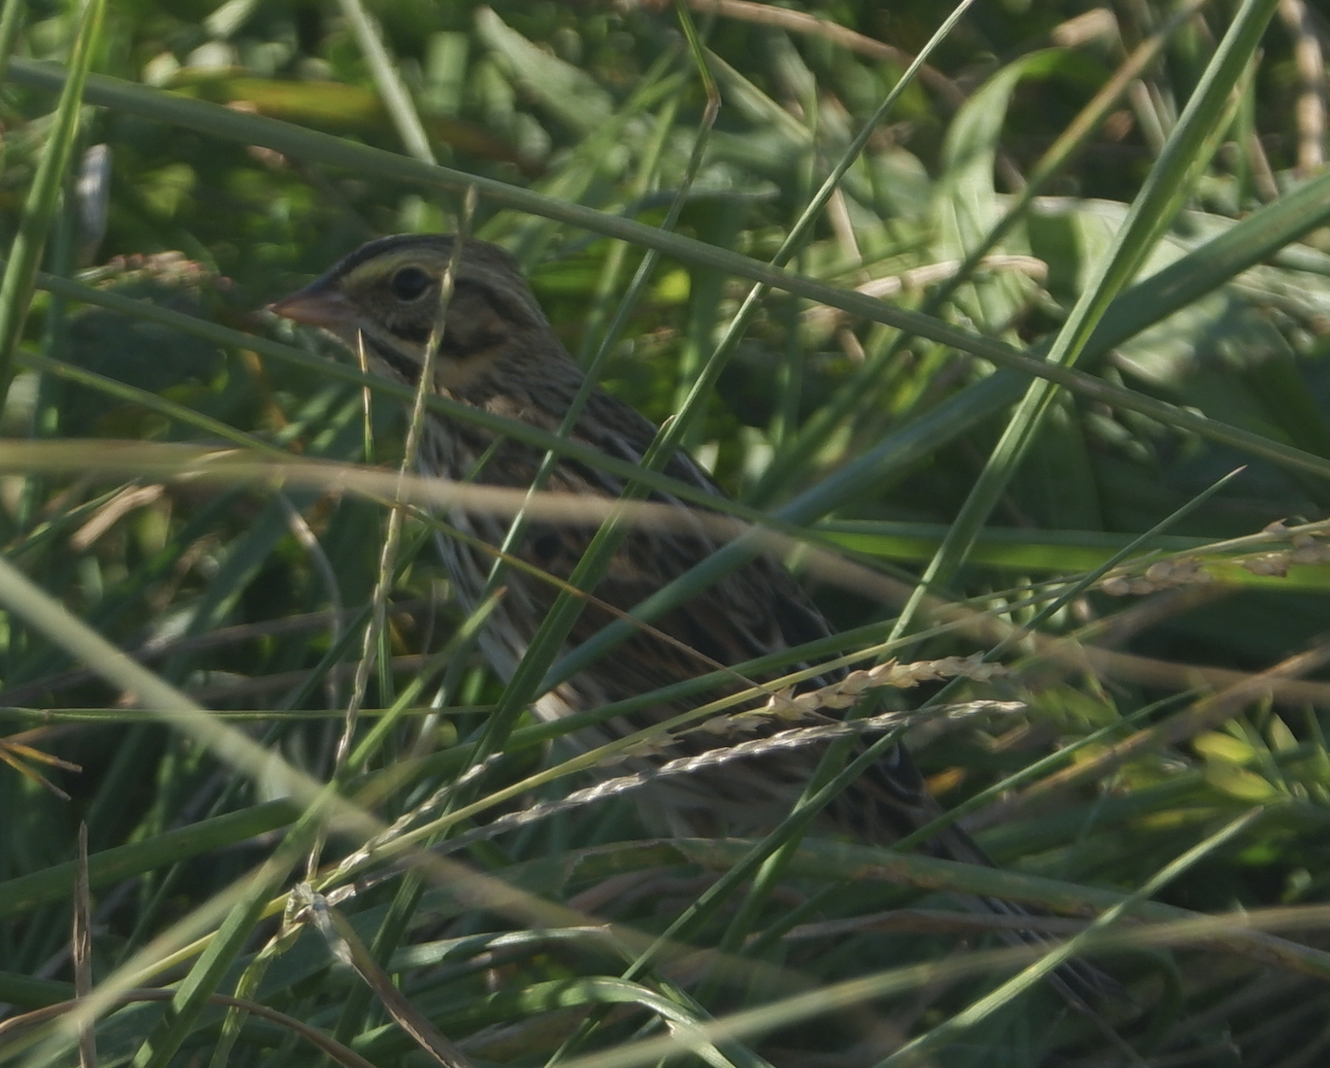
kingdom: Animalia
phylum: Chordata
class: Aves
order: Passeriformes
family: Passerellidae
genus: Passerculus
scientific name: Passerculus sandwichensis
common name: Savannah sparrow
